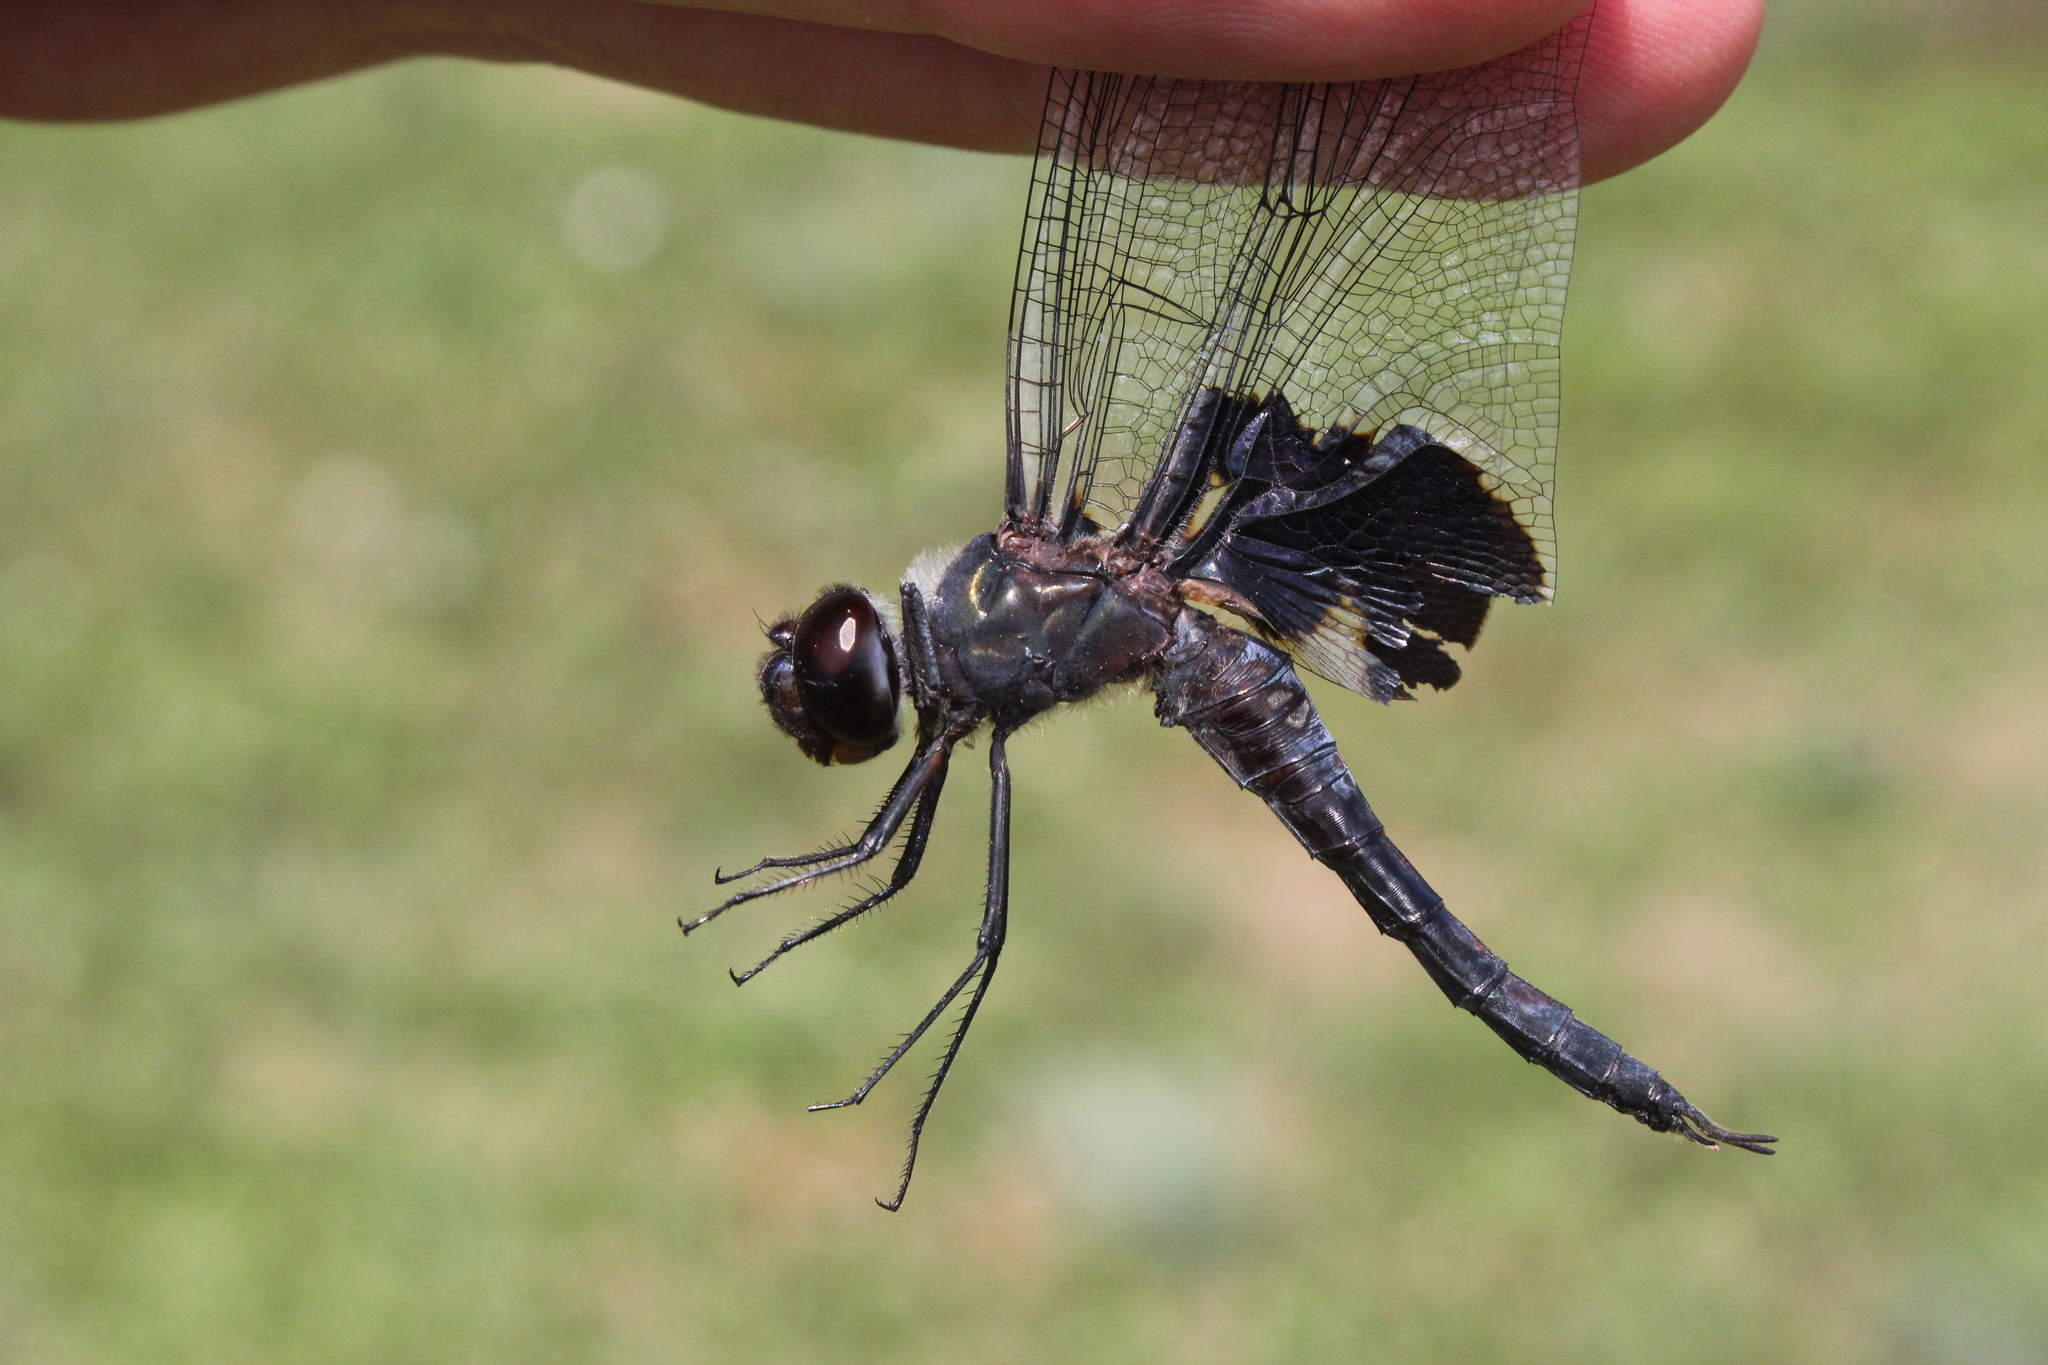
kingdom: Animalia
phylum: Arthropoda
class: Insecta
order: Odonata
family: Libellulidae
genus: Tramea
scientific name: Tramea lacerata
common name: Black saddlebags
